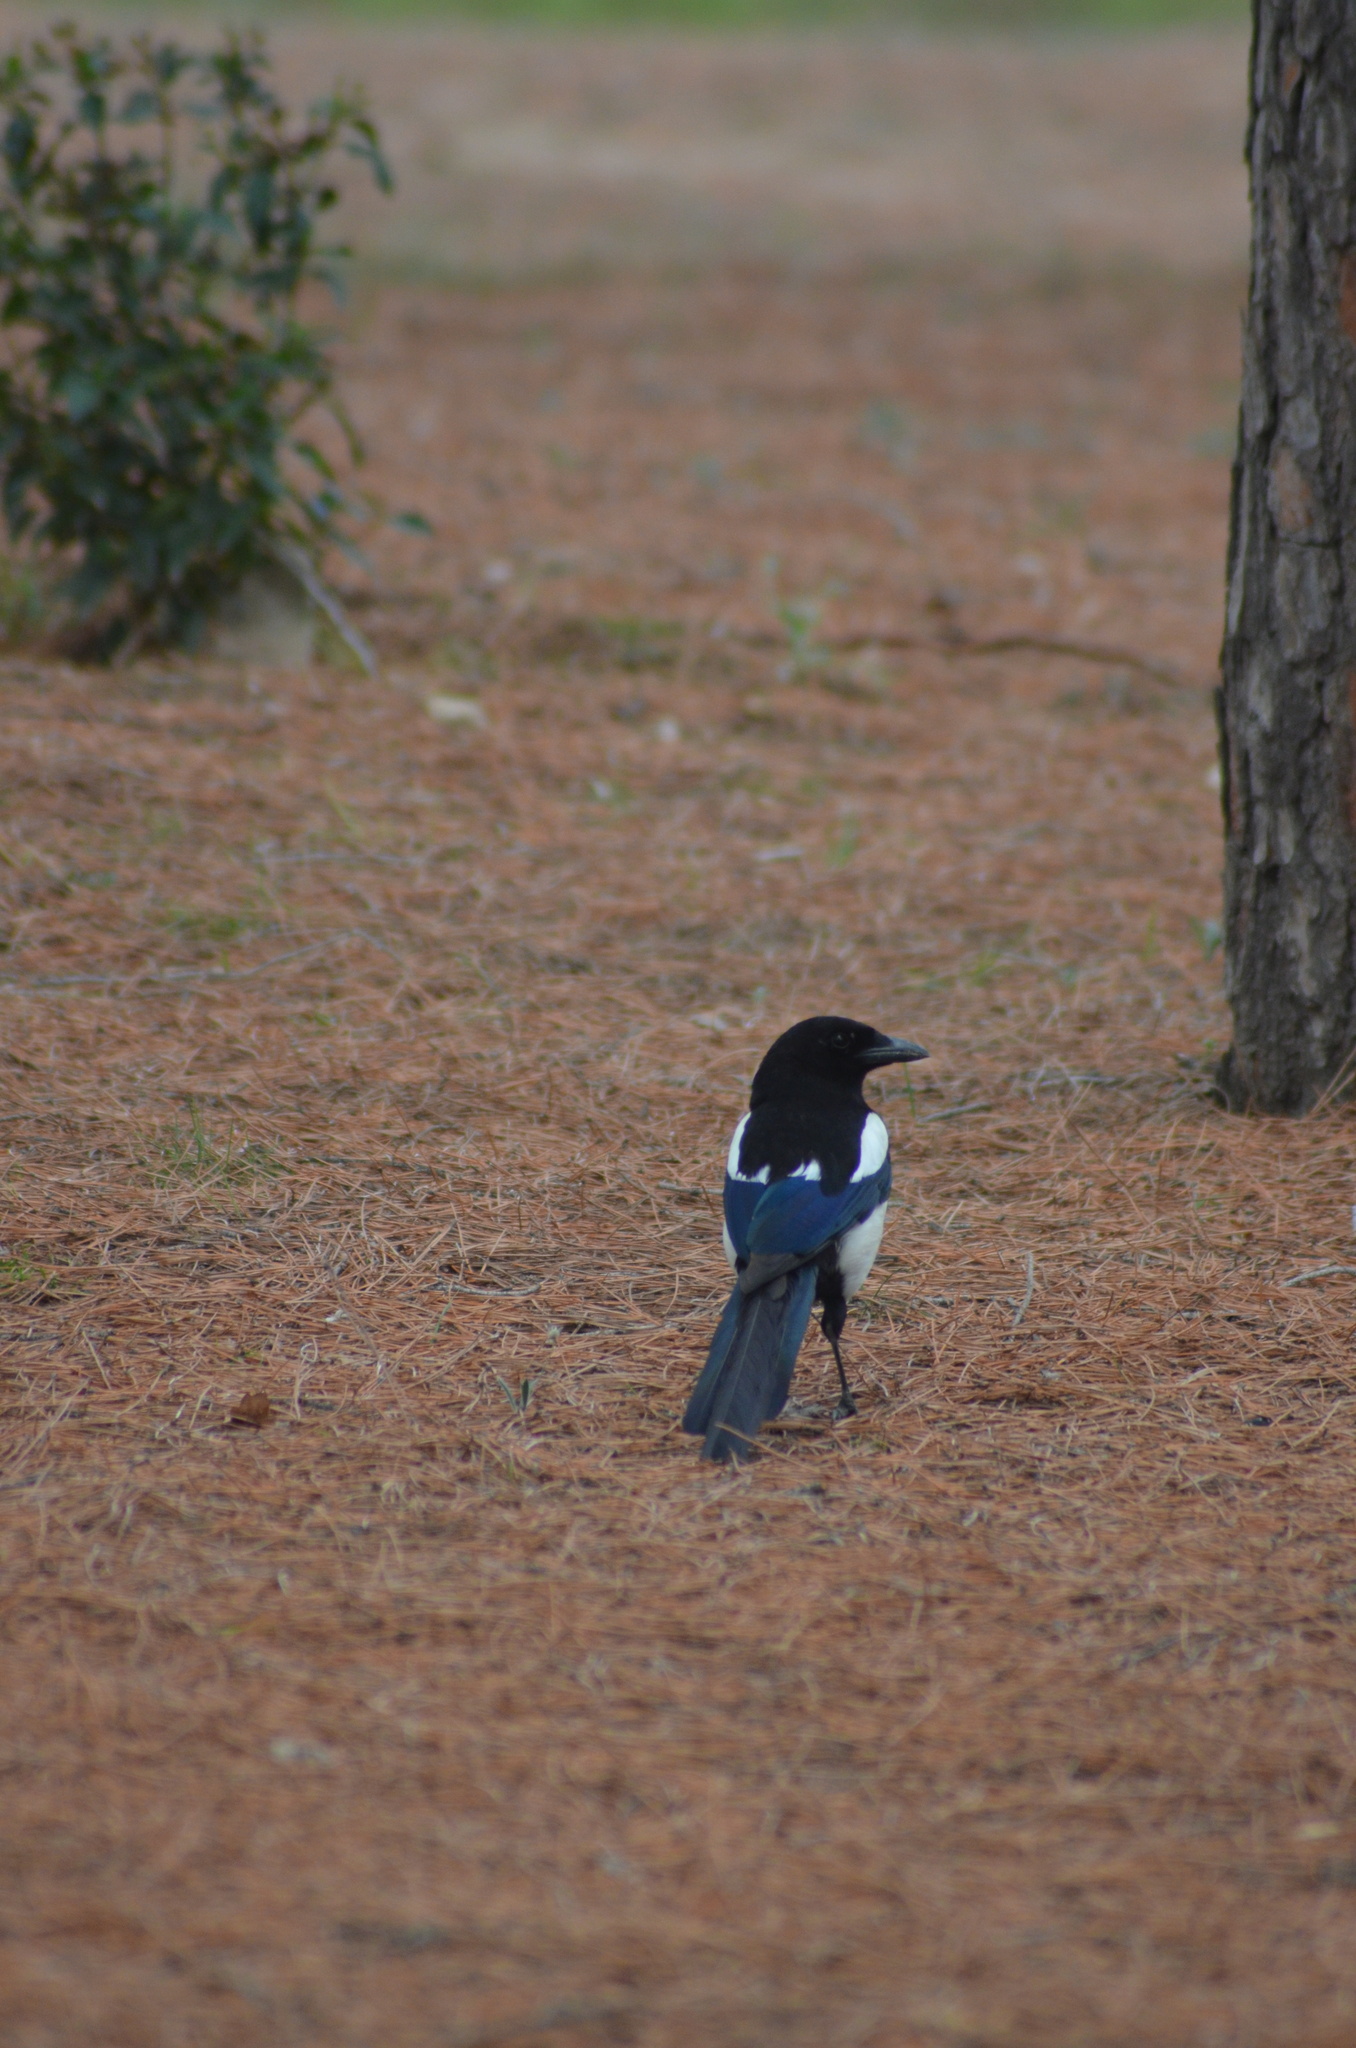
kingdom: Animalia
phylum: Chordata
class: Aves
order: Passeriformes
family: Corvidae
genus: Pica
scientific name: Pica pica
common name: Eurasian magpie
